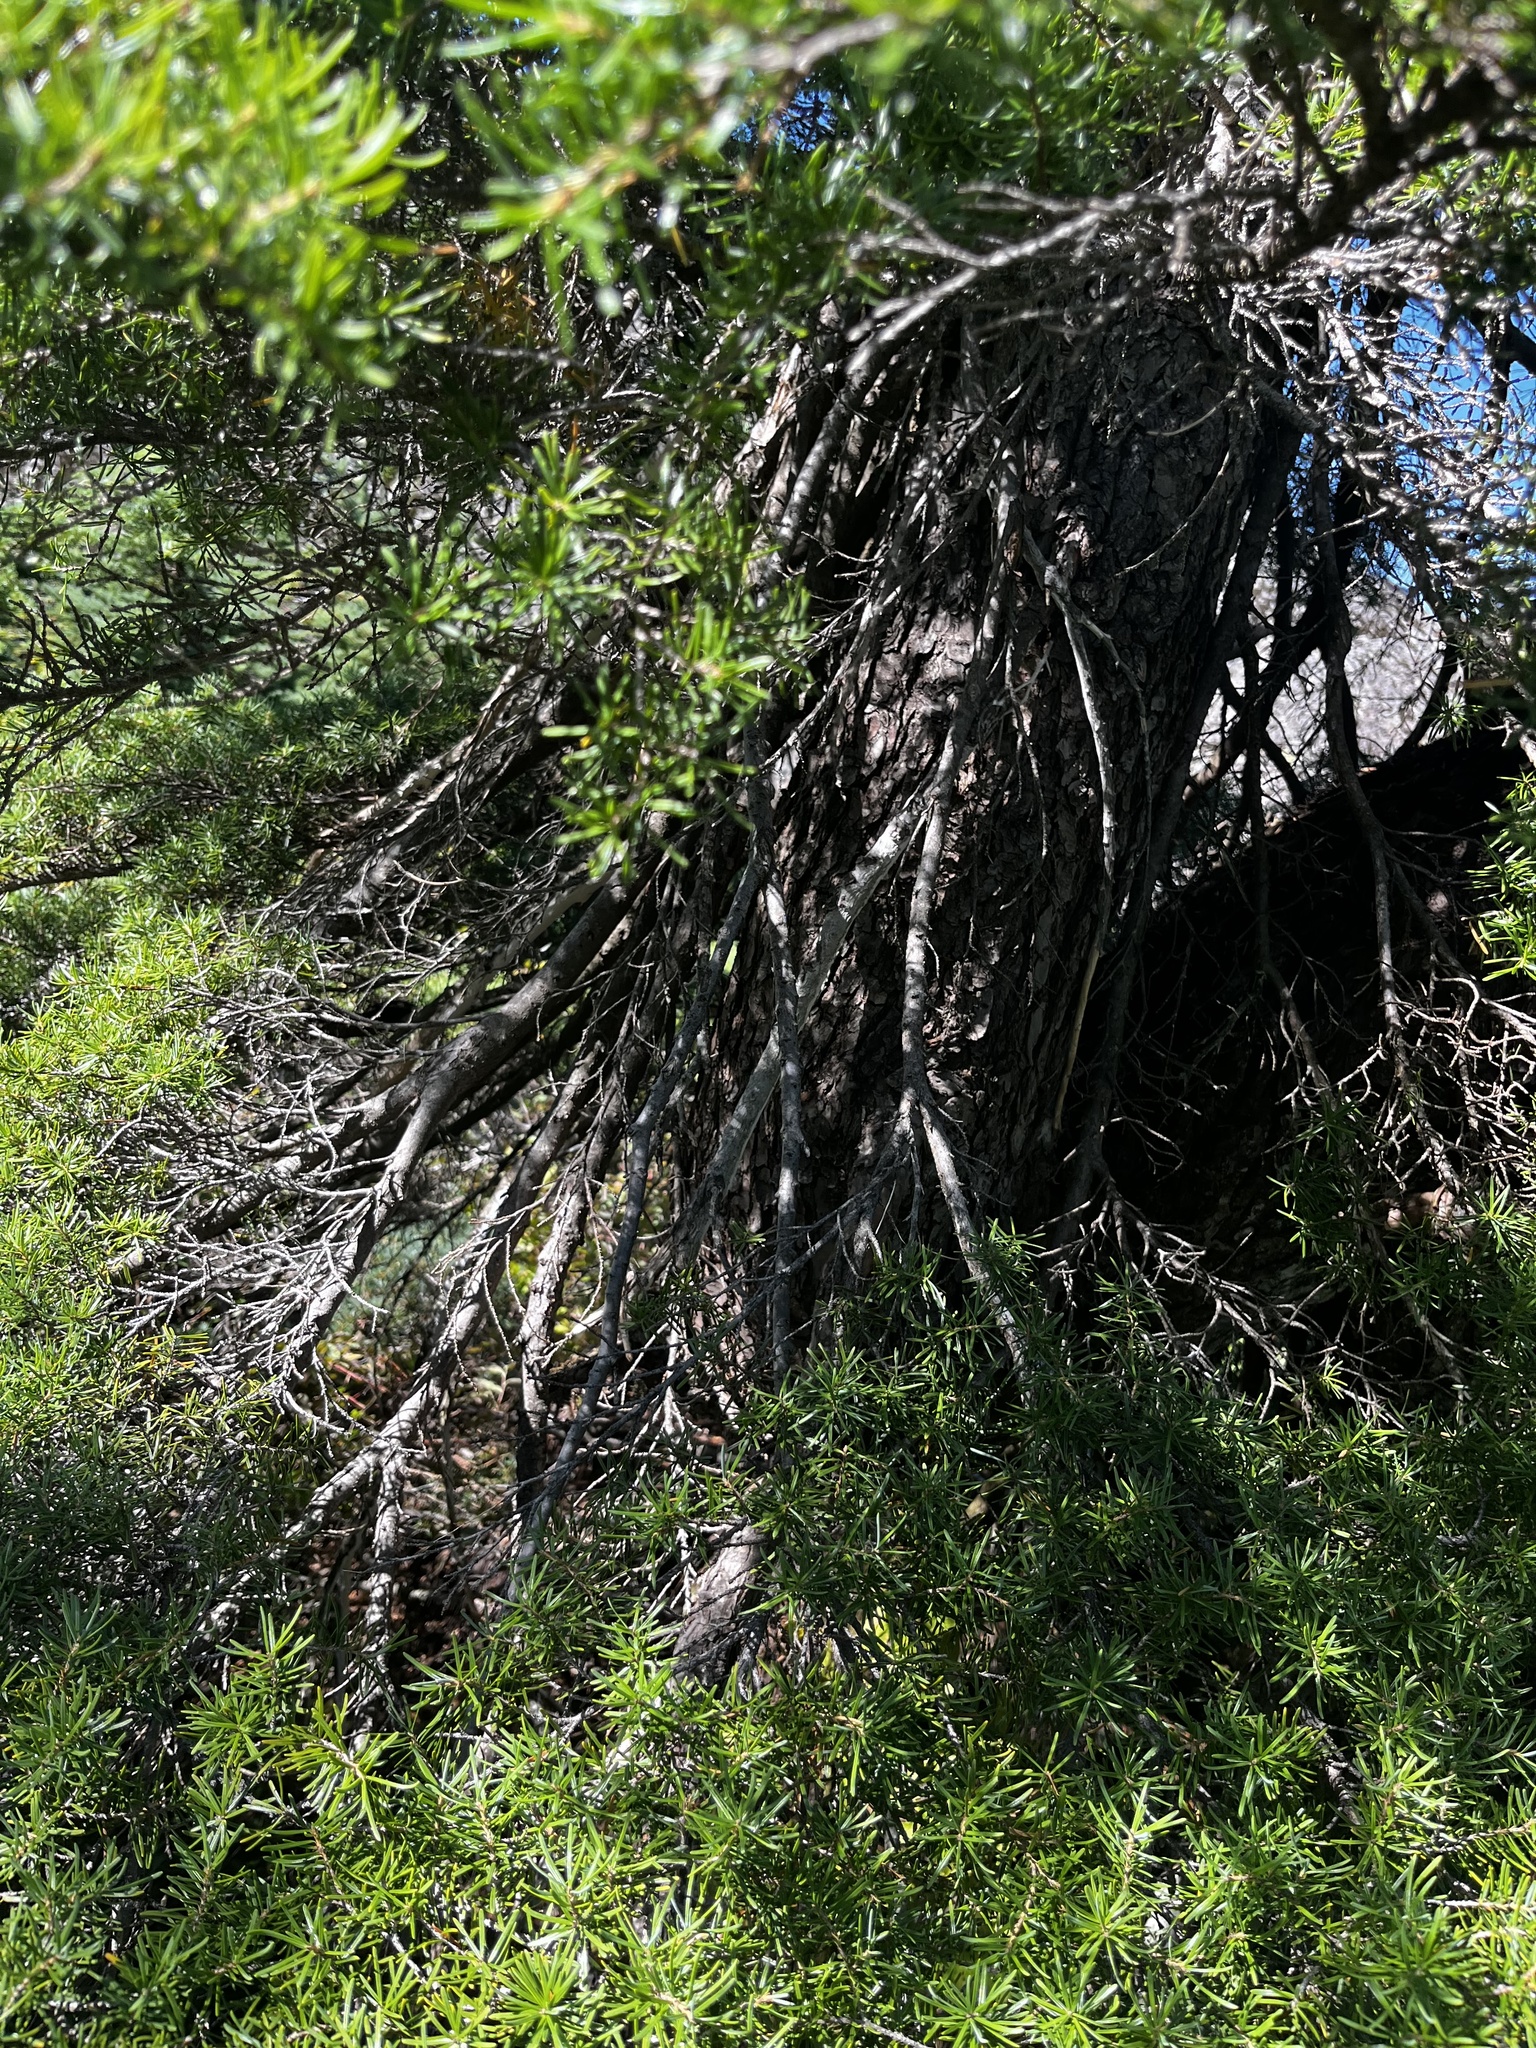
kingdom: Plantae
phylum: Tracheophyta
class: Pinopsida
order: Pinales
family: Pinaceae
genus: Tsuga
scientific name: Tsuga mertensiana
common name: Mountain hemlock
